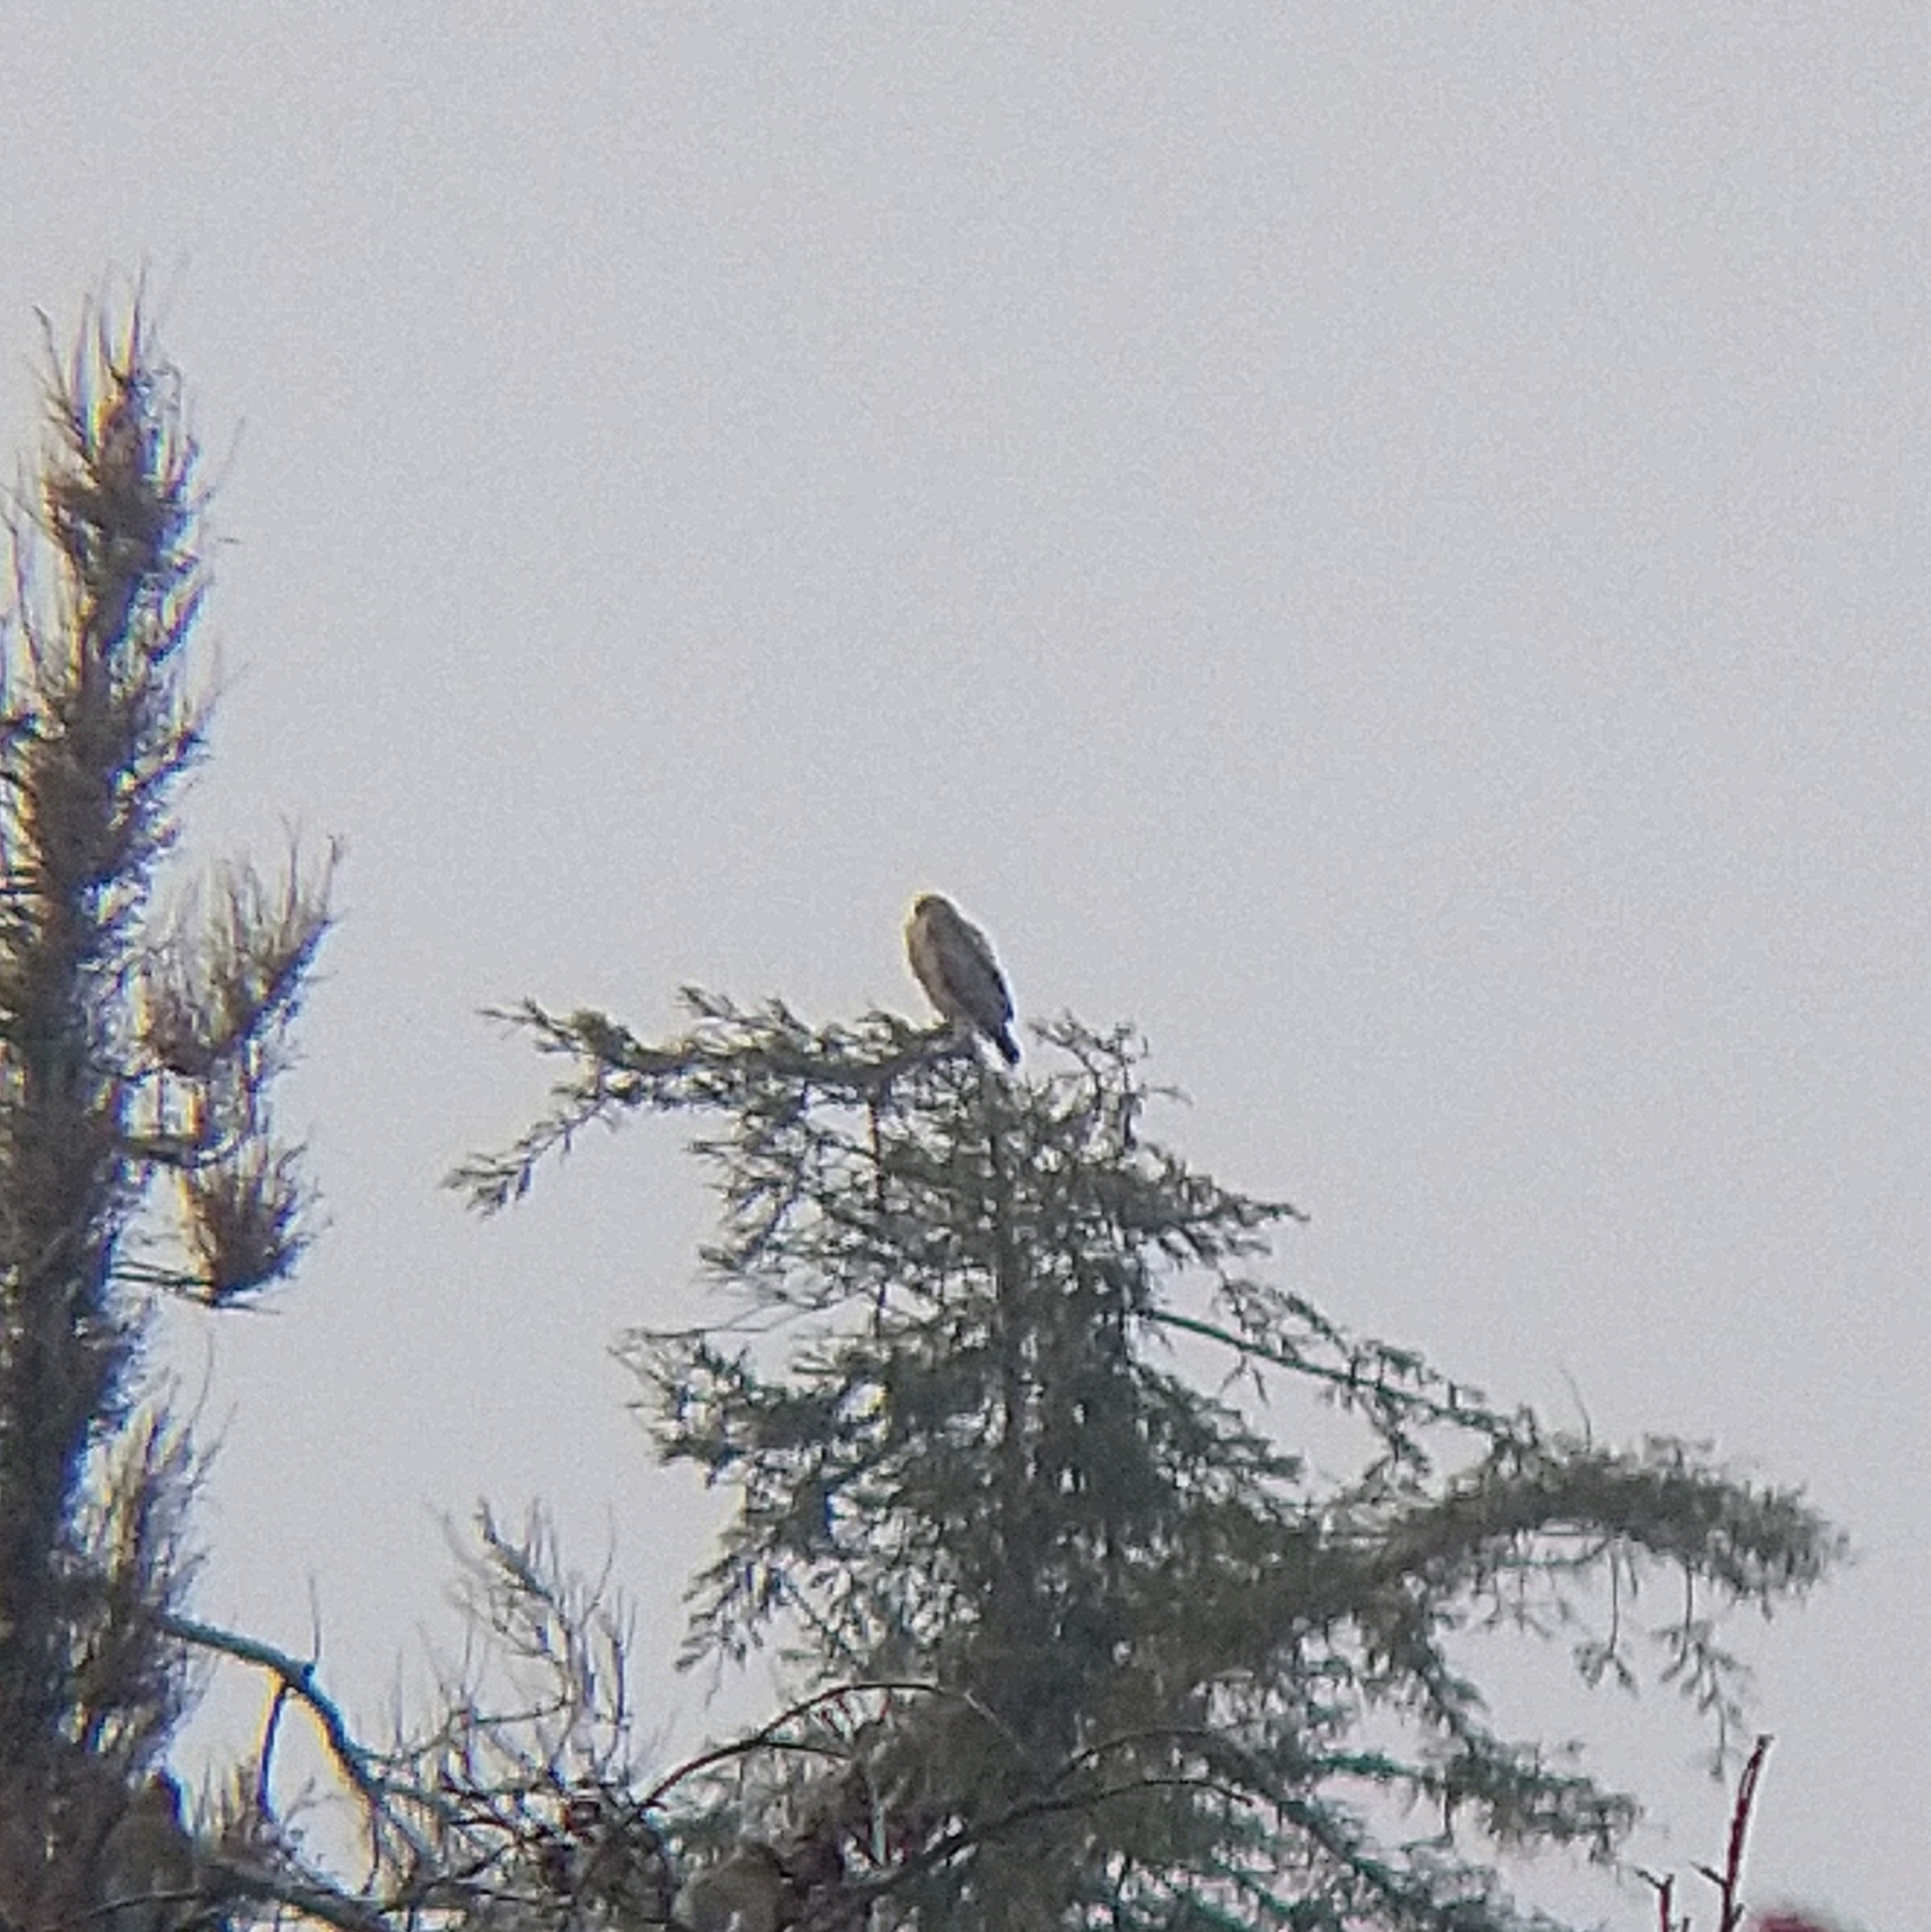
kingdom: Animalia
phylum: Chordata
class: Aves
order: Accipitriformes
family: Accipitridae
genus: Buteo
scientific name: Buteo jamaicensis
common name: Red-tailed hawk
